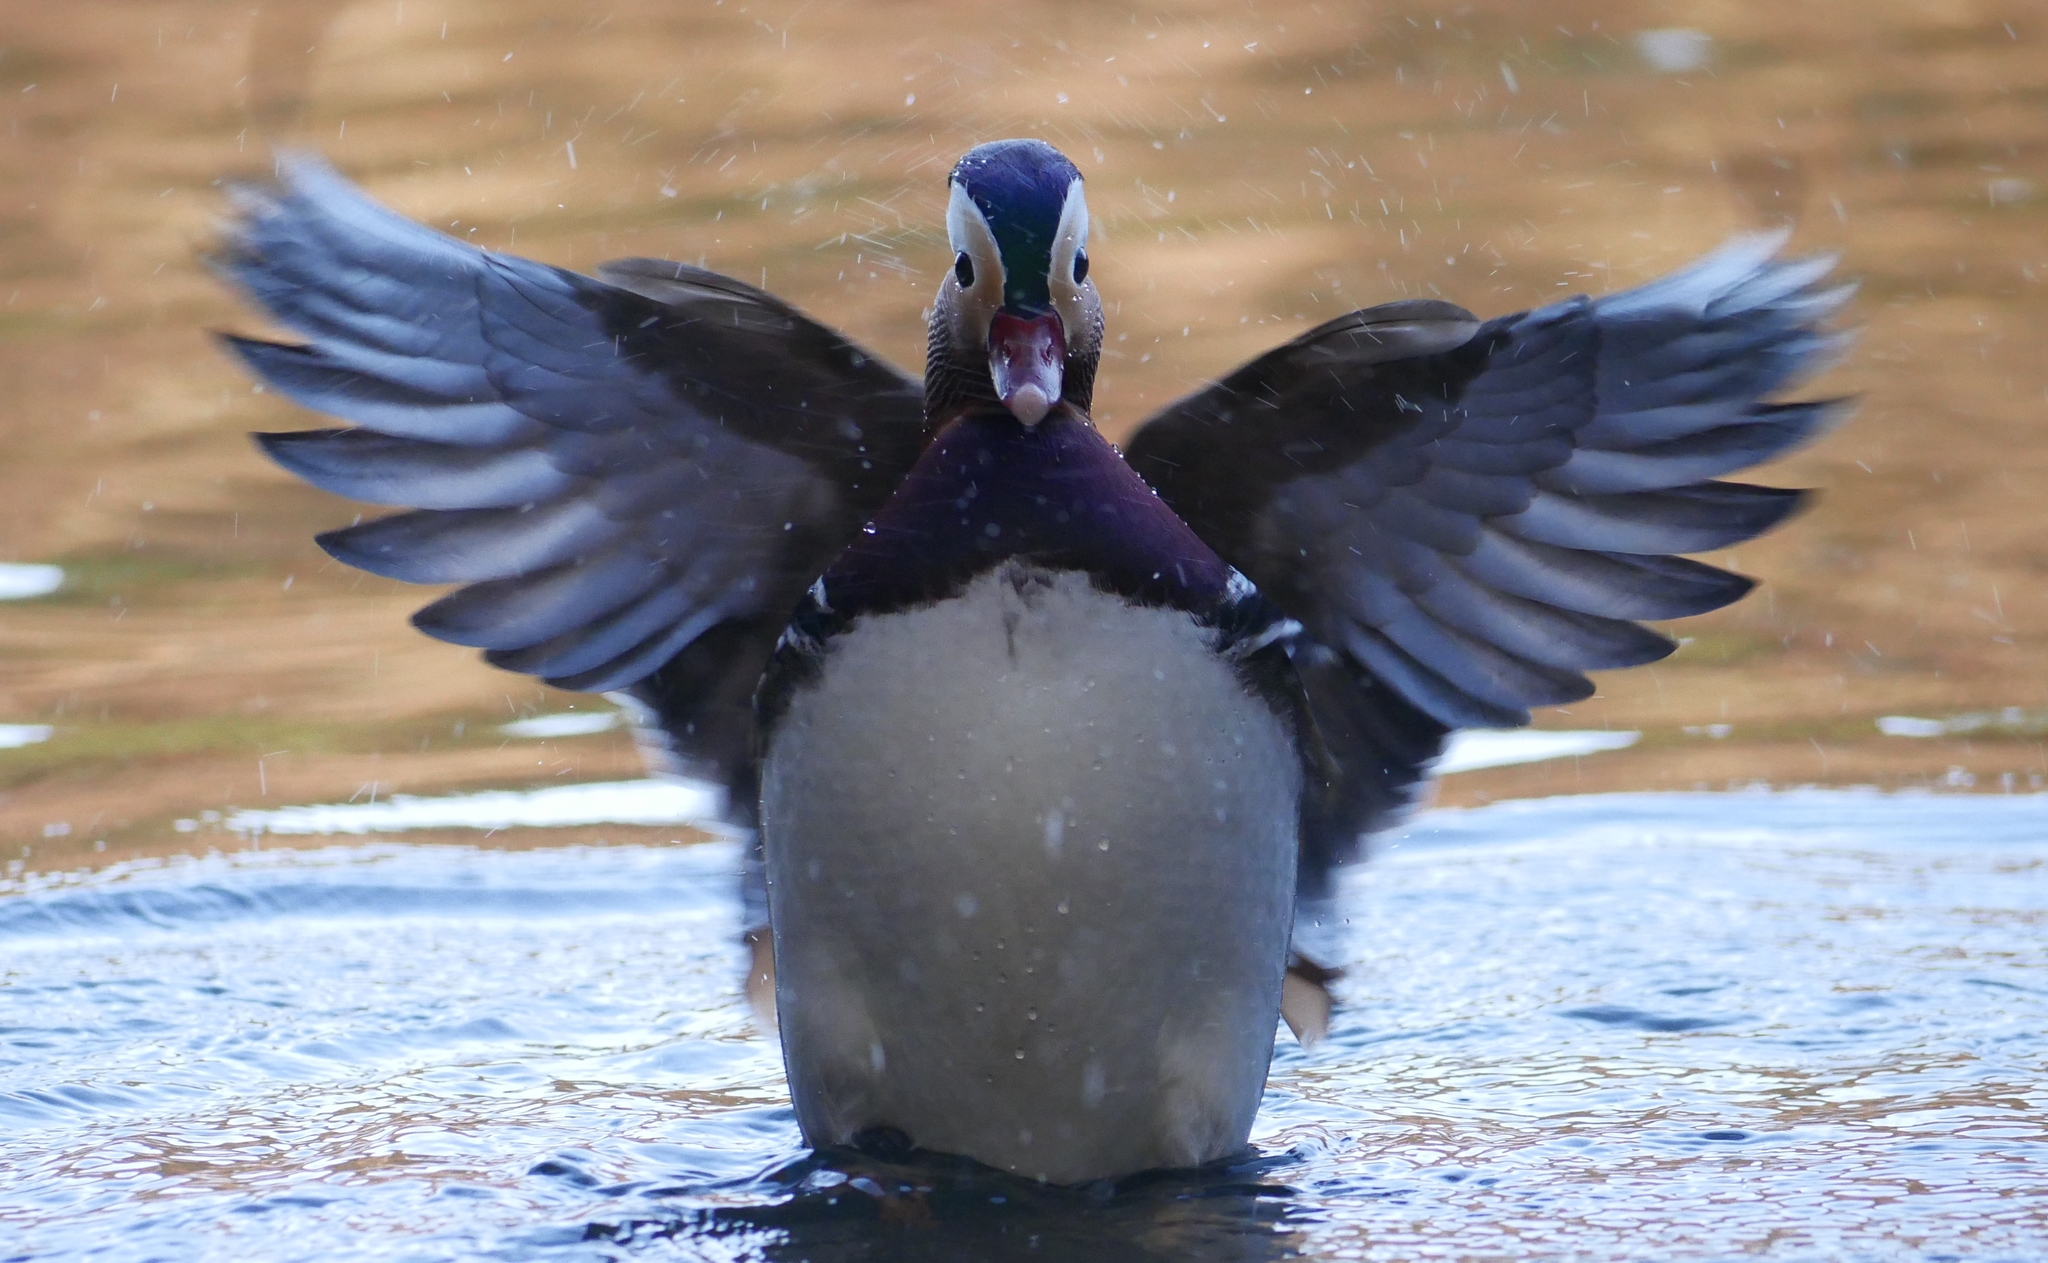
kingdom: Animalia
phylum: Chordata
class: Aves
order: Anseriformes
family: Anatidae
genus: Aix
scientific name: Aix galericulata
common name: Mandarin duck
